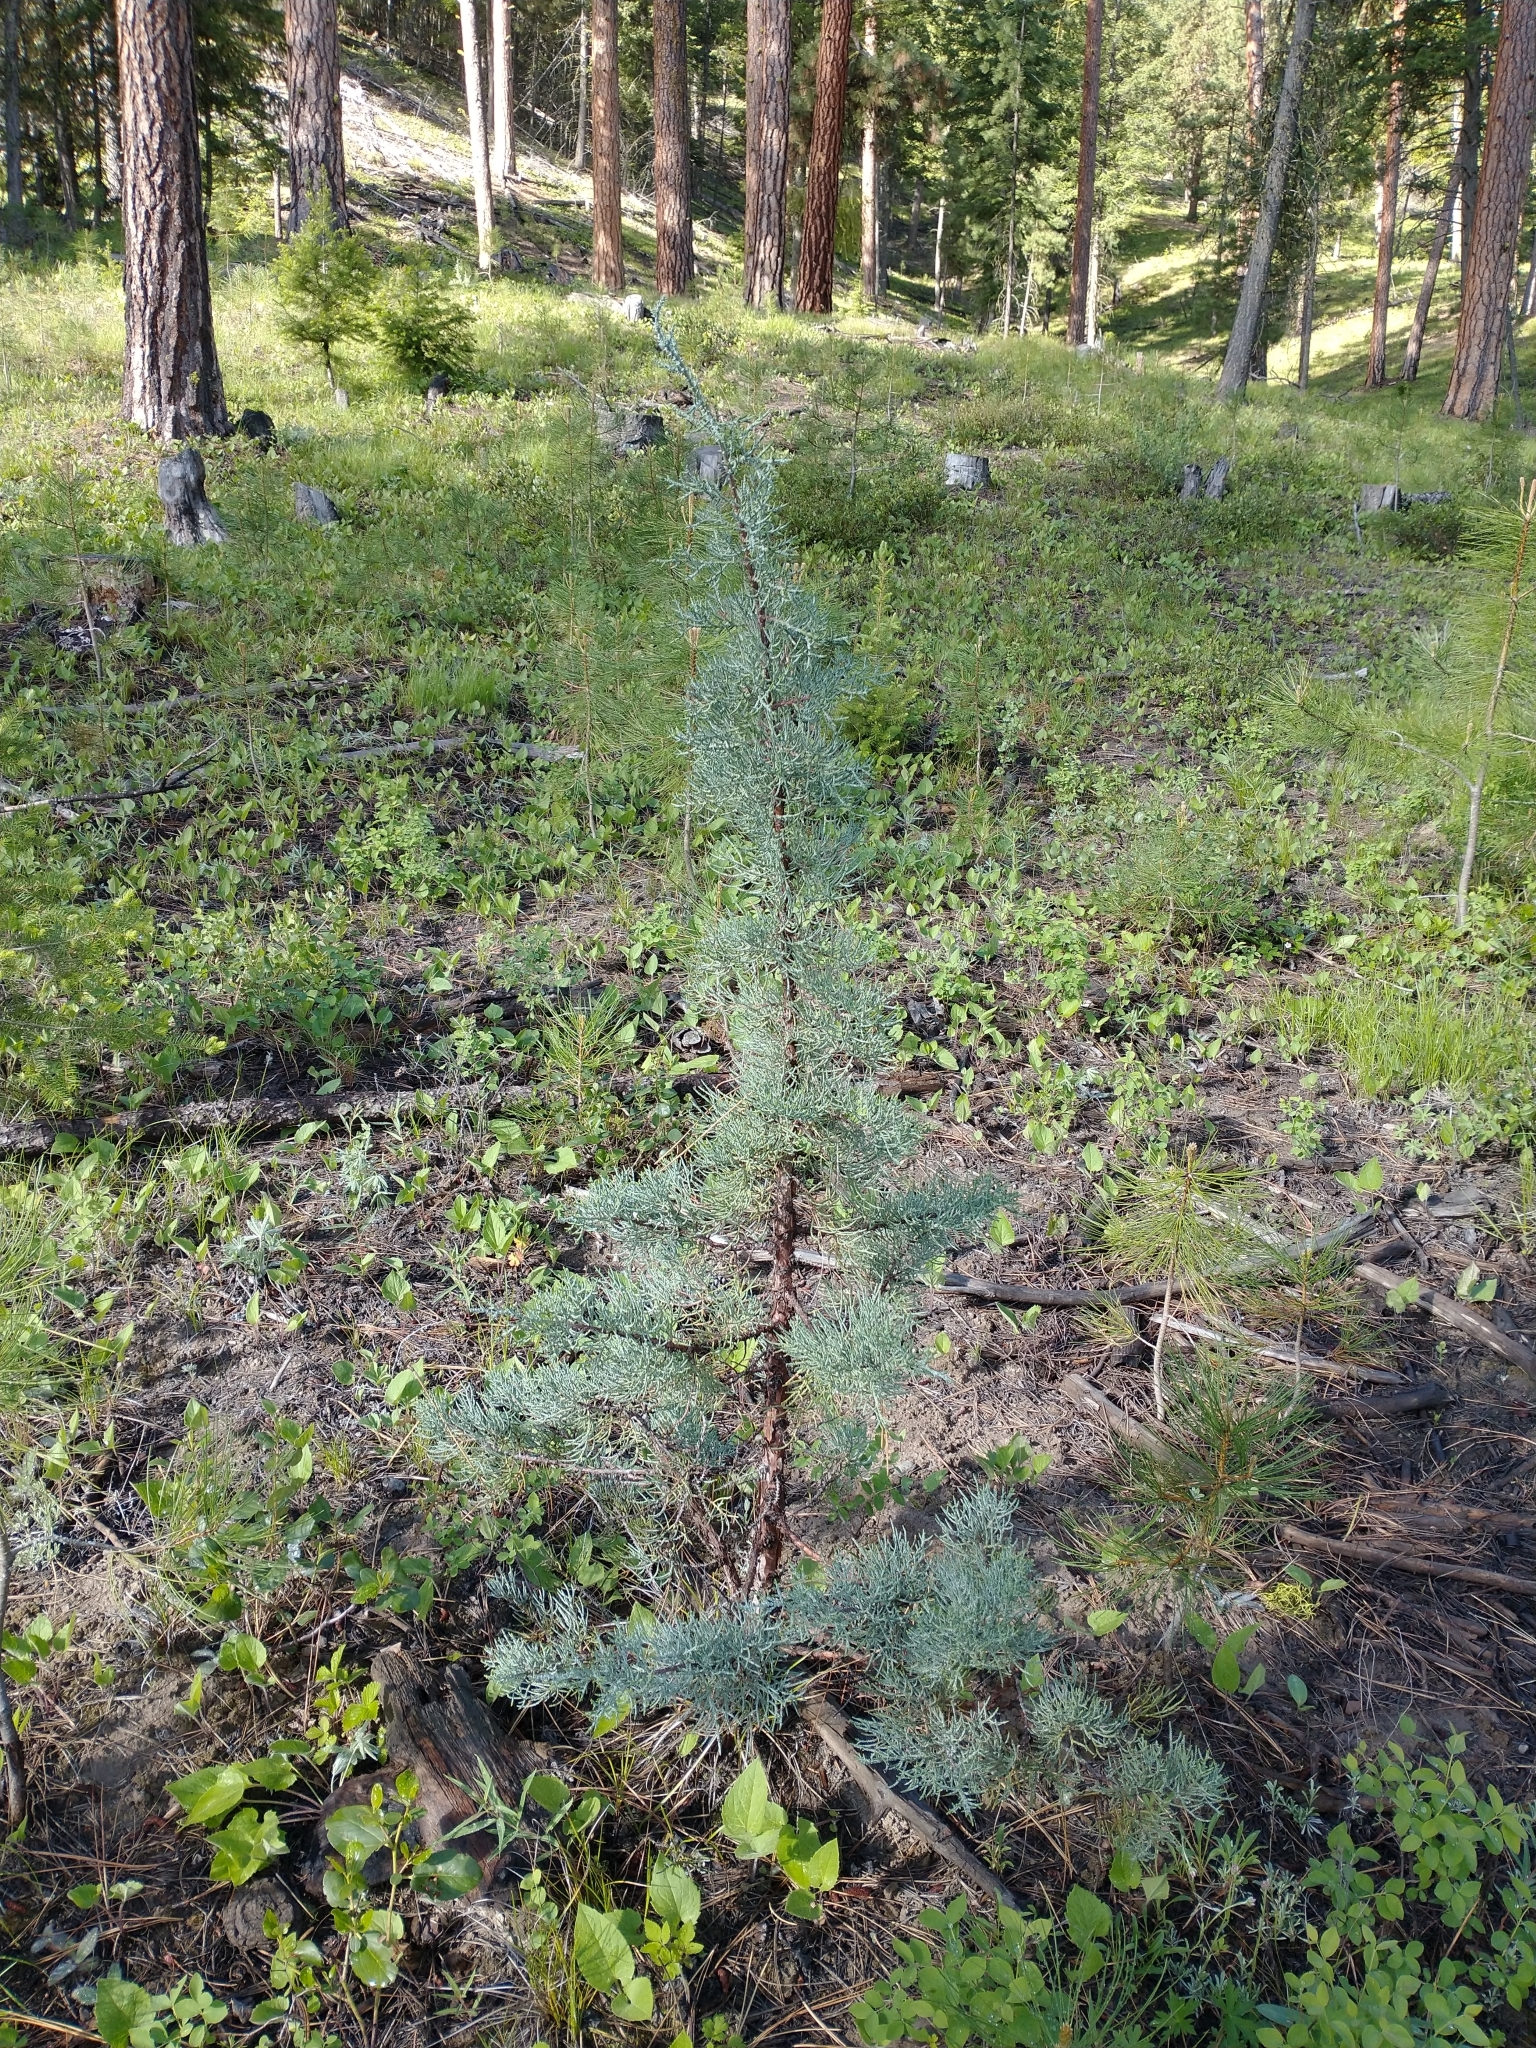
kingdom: Plantae
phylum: Tracheophyta
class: Pinopsida
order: Pinales
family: Cupressaceae
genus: Juniperus
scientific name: Juniperus occidentalis
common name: Western juniper
